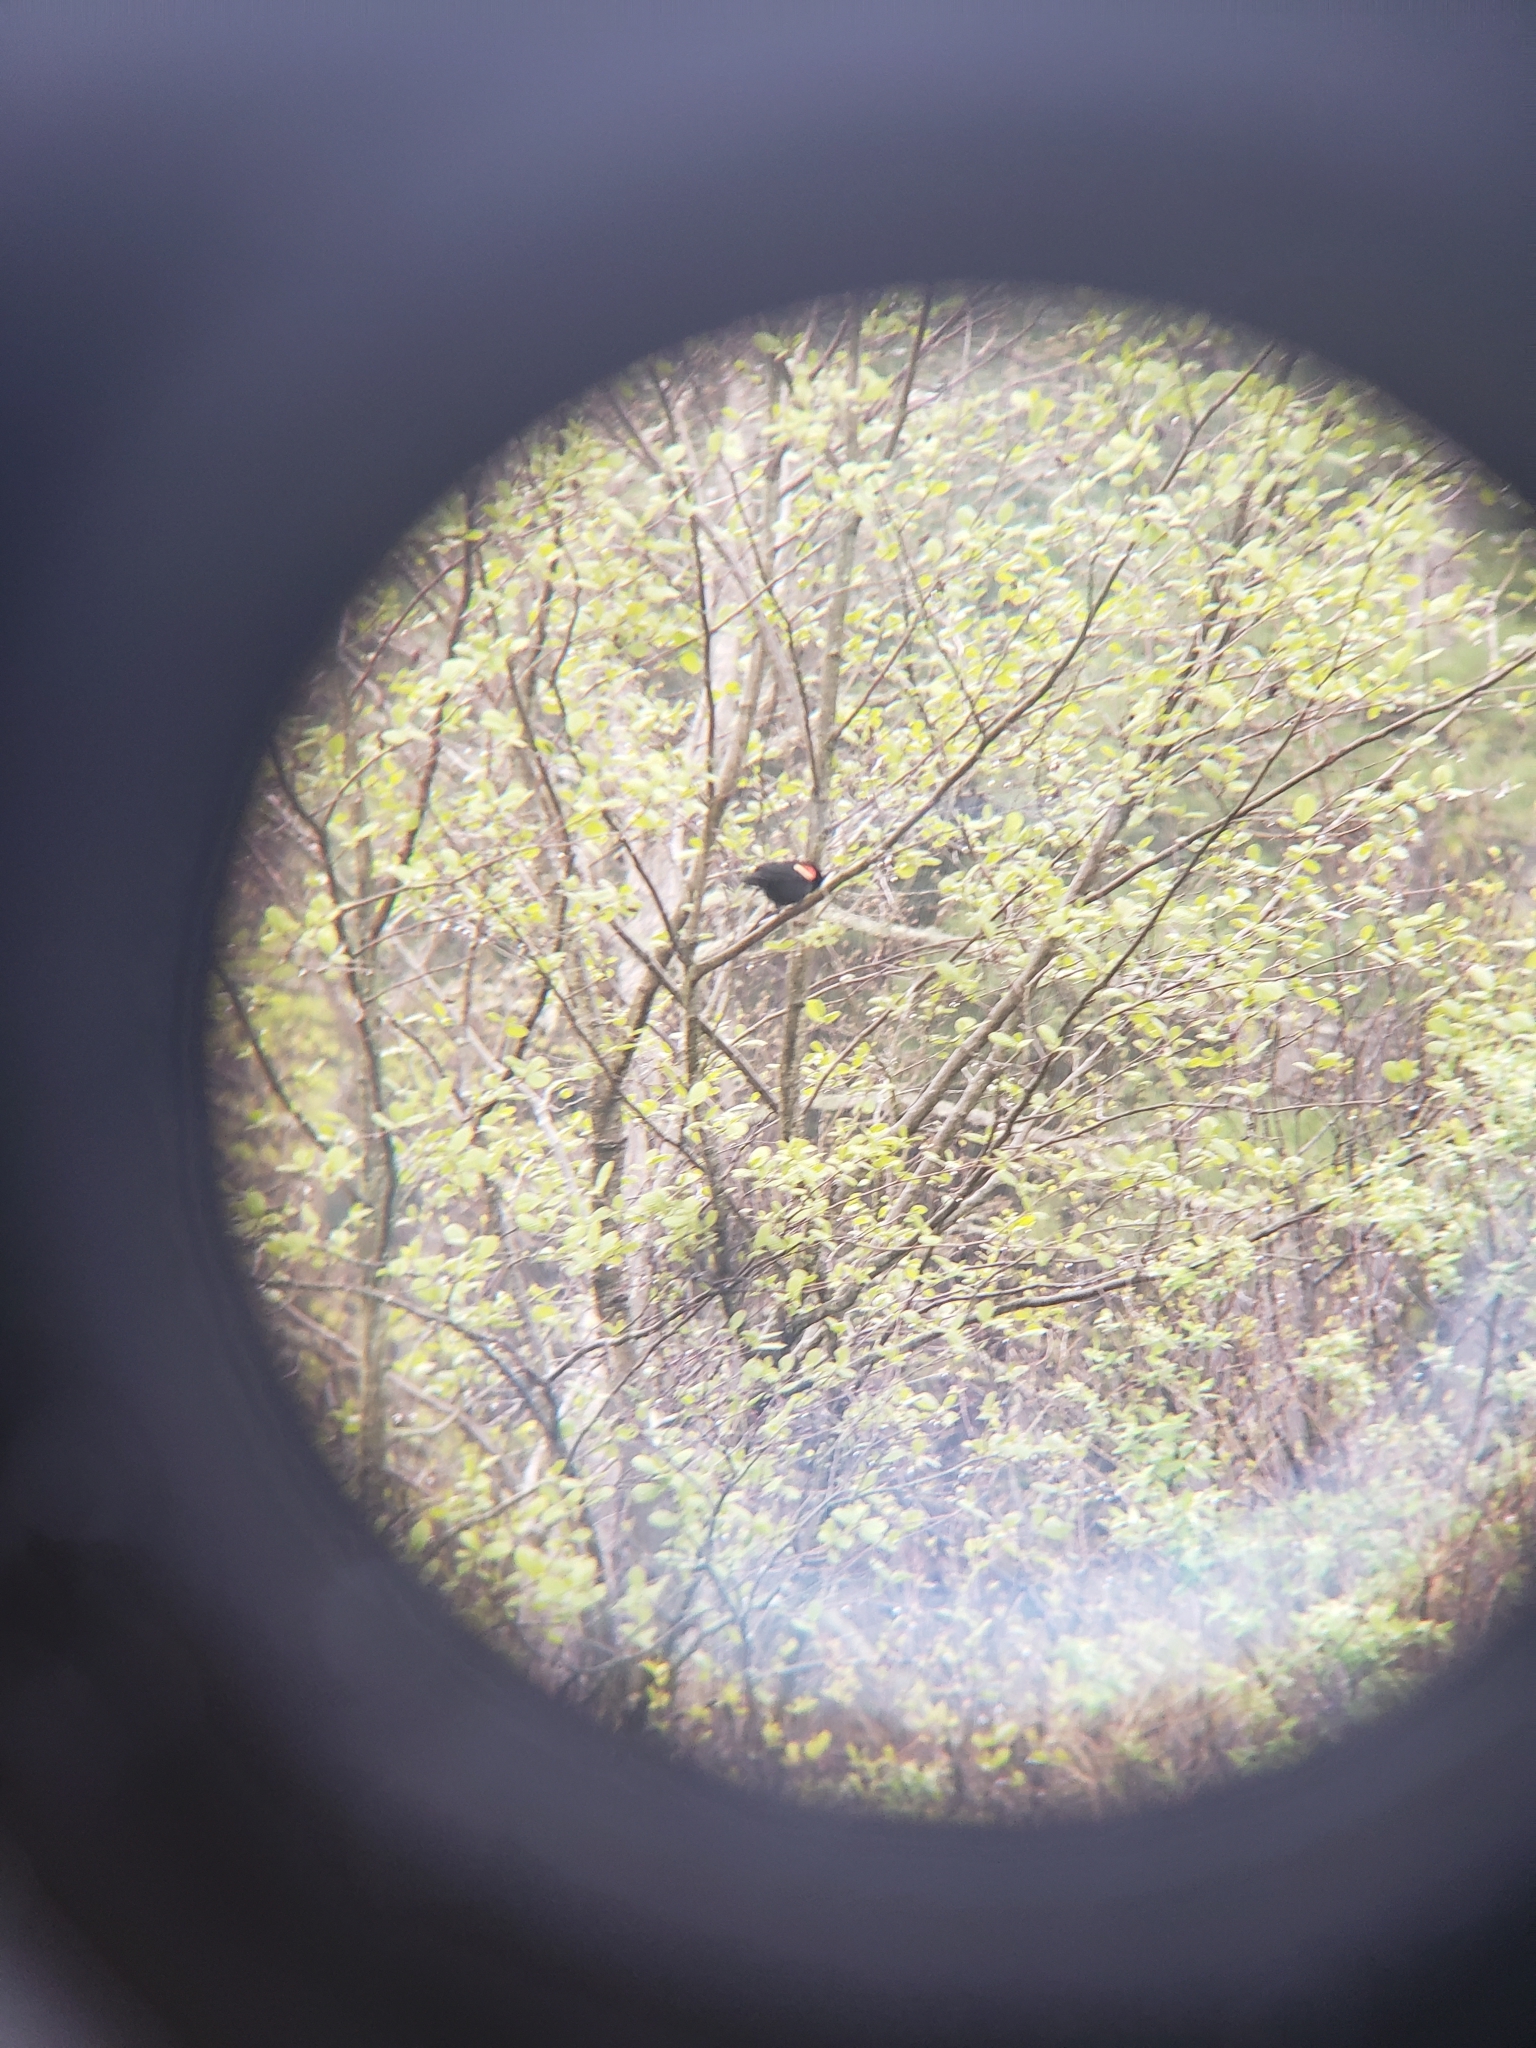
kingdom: Animalia
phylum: Chordata
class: Aves
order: Passeriformes
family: Icteridae
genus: Agelaius
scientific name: Agelaius phoeniceus
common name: Red-winged blackbird
